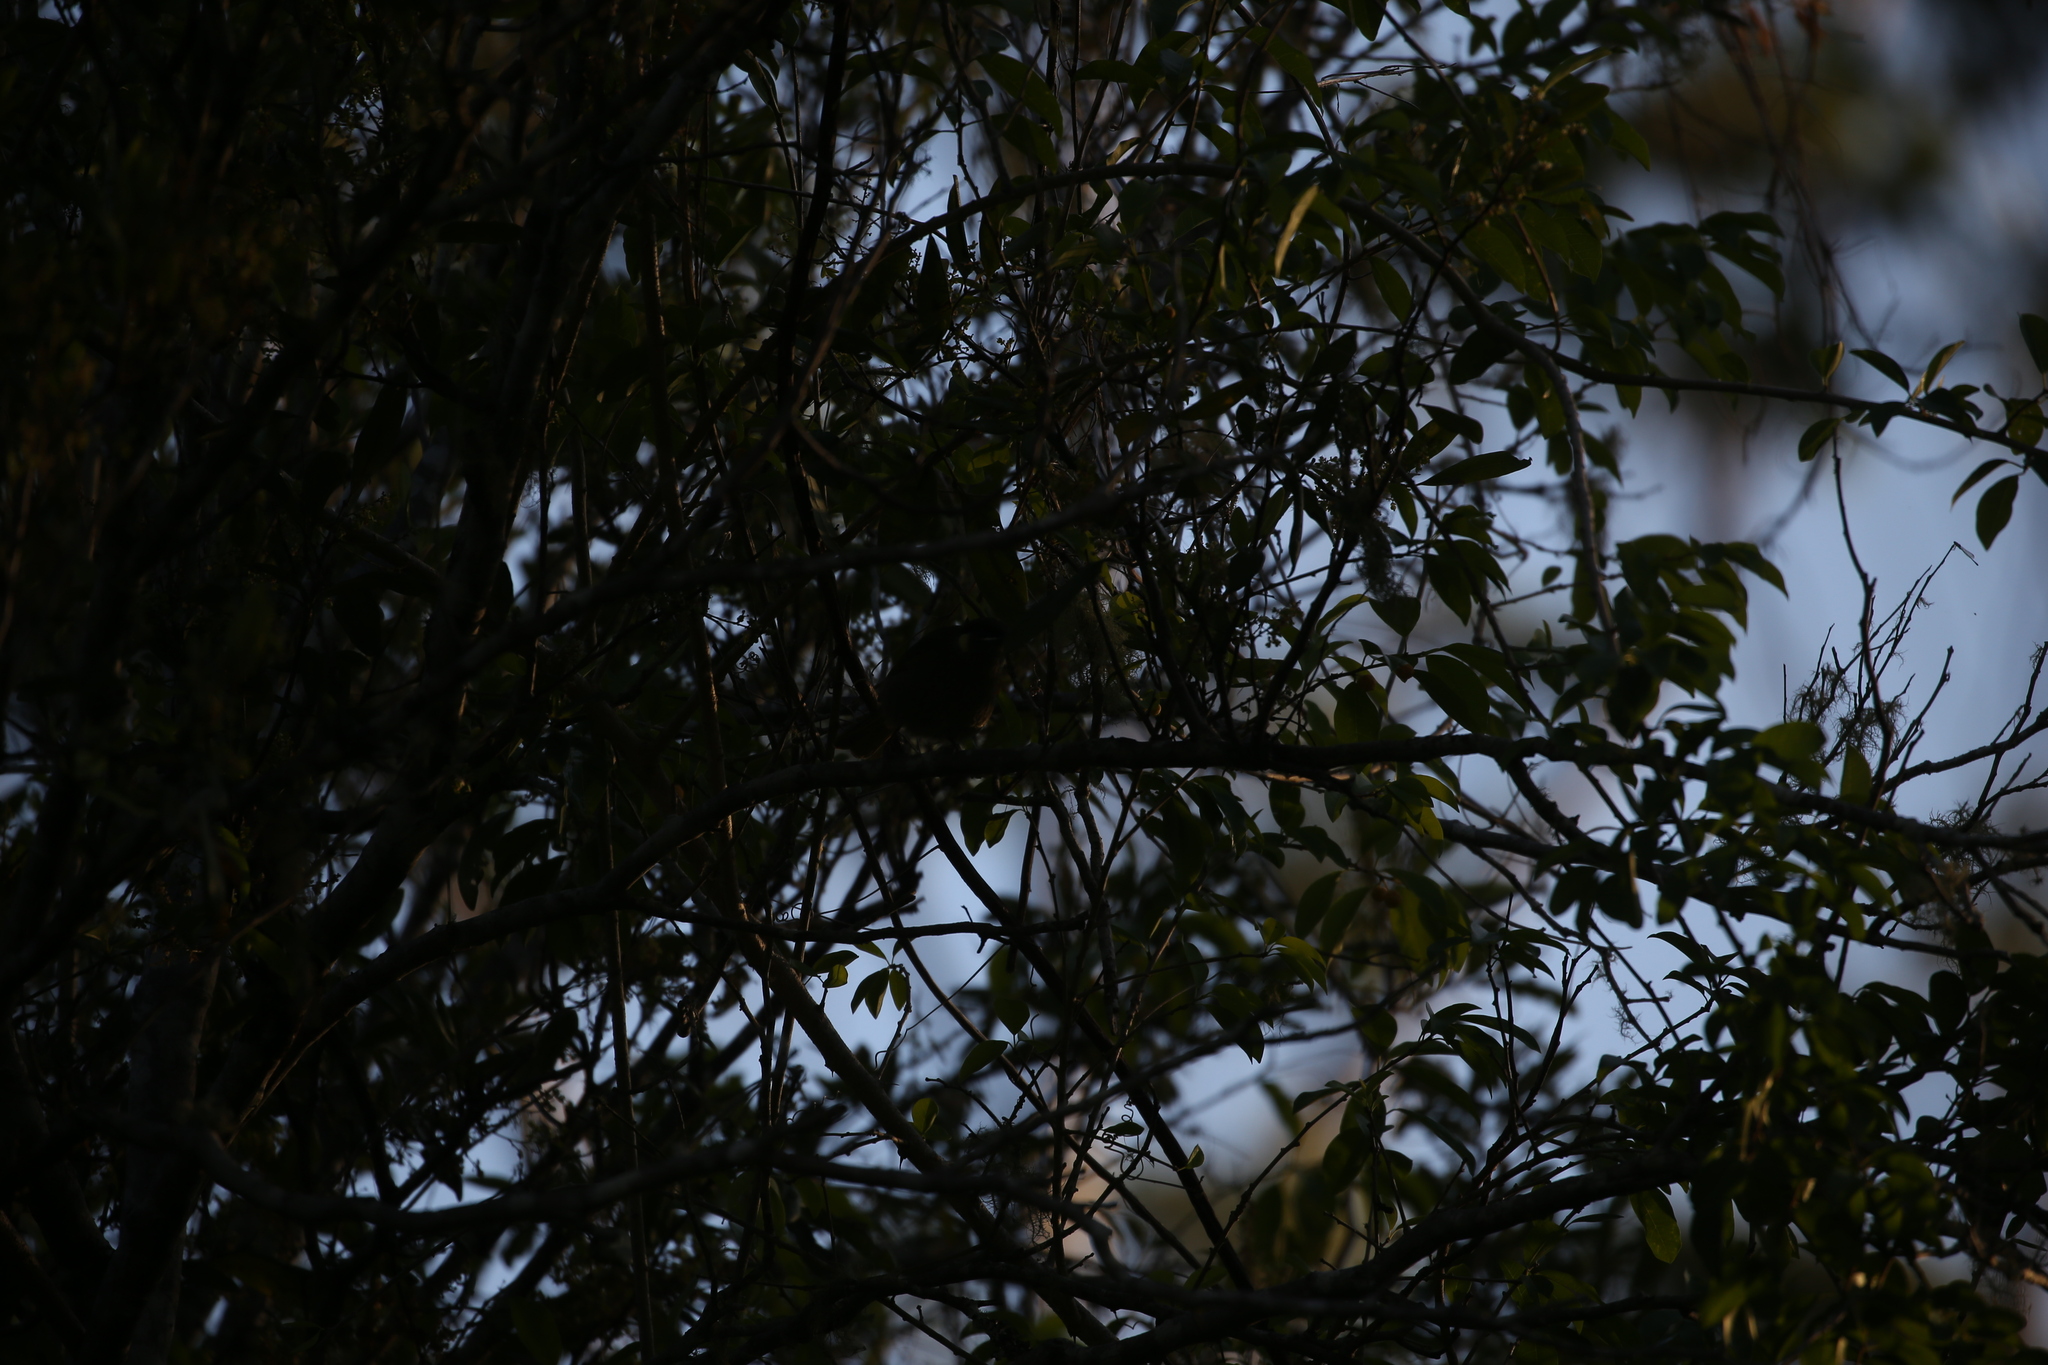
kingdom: Animalia
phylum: Chordata
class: Aves
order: Passeriformes
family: Meliphagidae
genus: Meliphaga
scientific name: Meliphaga lewinii
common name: Lewin's honeyeater
